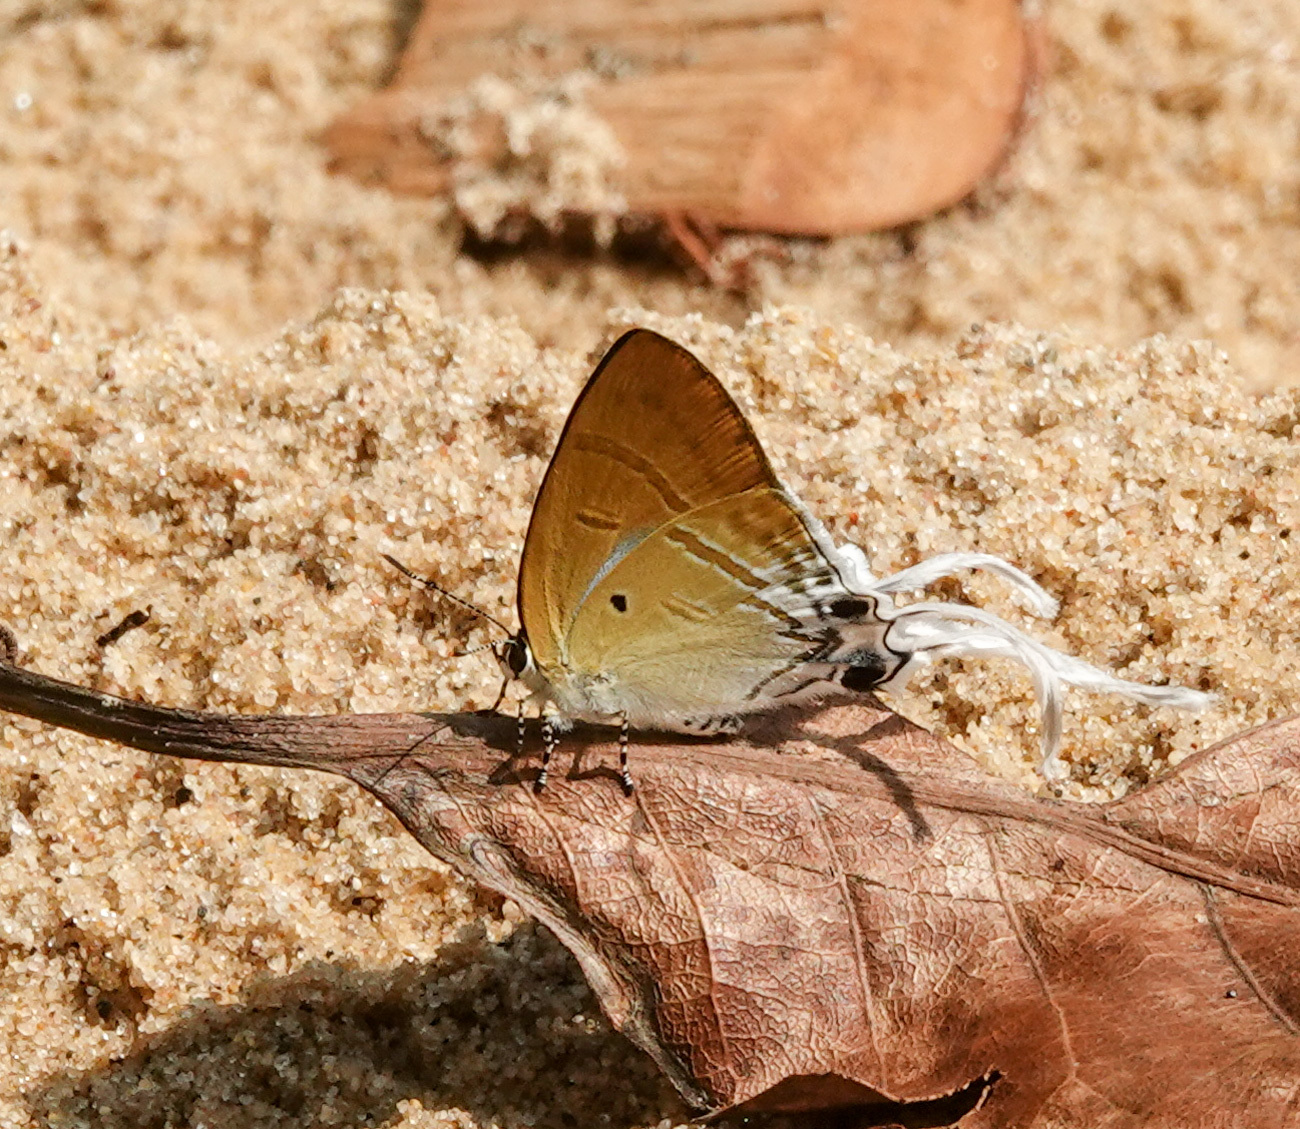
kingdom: Animalia
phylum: Arthropoda
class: Insecta
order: Lepidoptera
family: Lycaenidae
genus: Zeltus
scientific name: Zeltus amasa
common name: Fluffy tit
